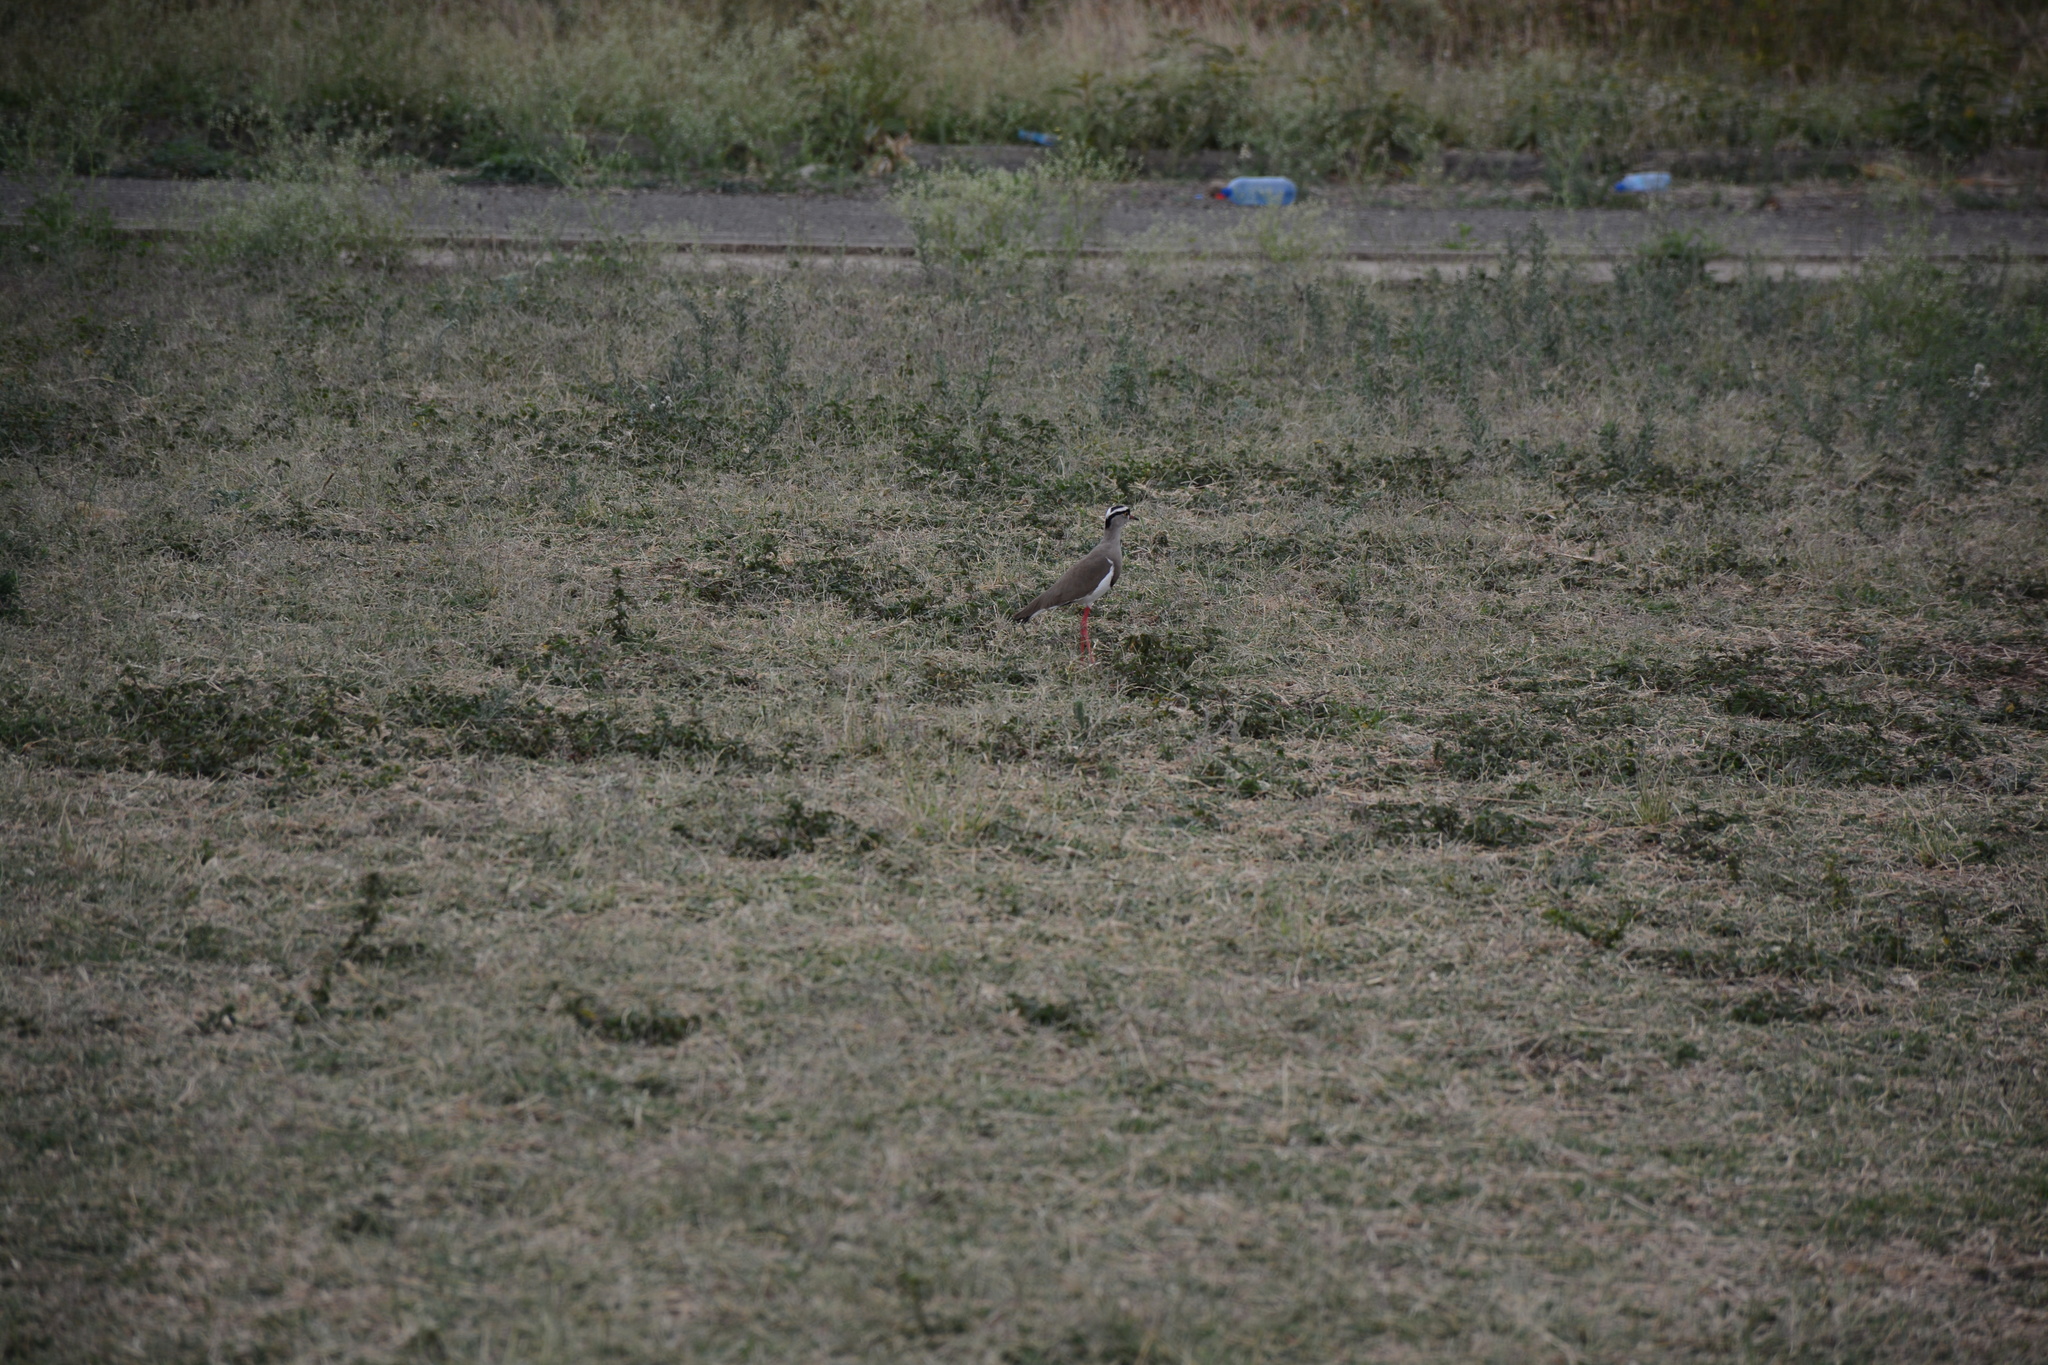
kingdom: Animalia
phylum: Chordata
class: Aves
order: Charadriiformes
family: Charadriidae
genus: Vanellus
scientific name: Vanellus coronatus
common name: Crowned lapwing
